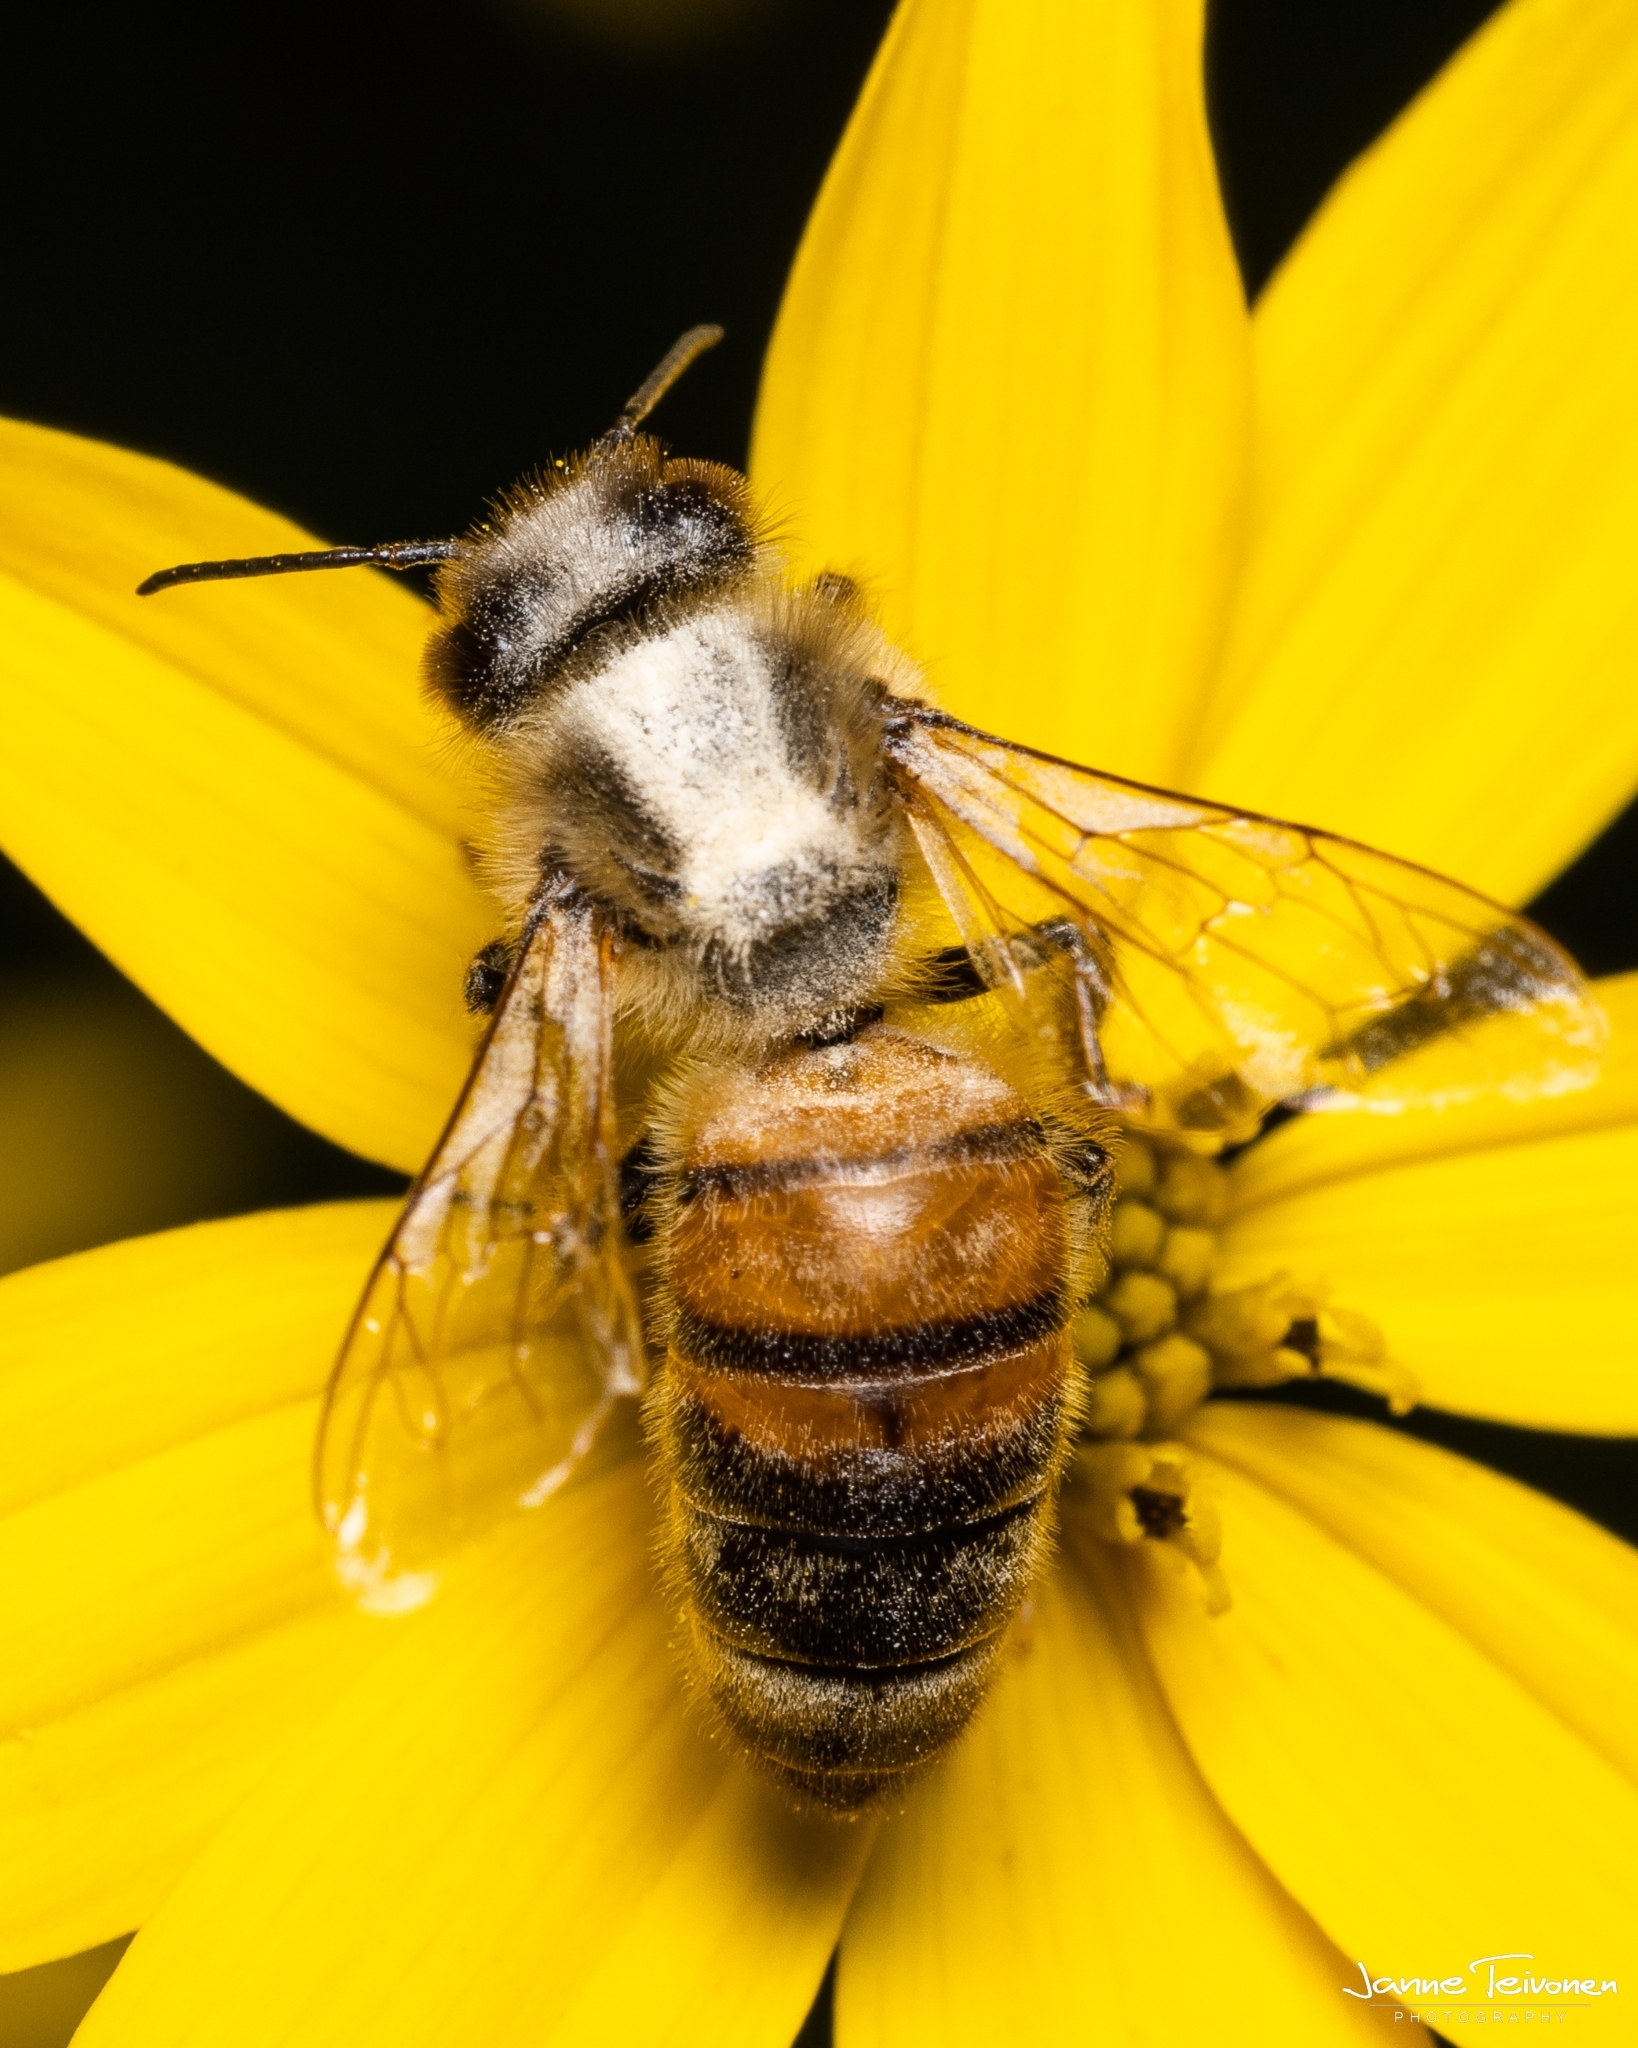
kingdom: Animalia
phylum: Arthropoda
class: Insecta
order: Hymenoptera
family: Apidae
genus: Apis
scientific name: Apis mellifera
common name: Honey bee
